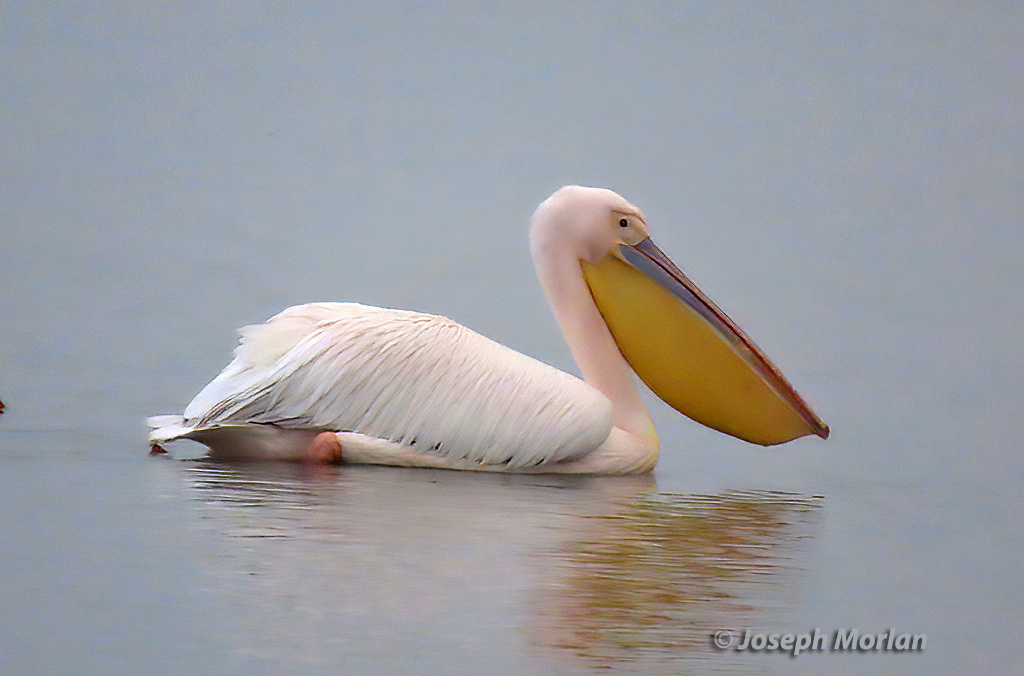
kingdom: Animalia
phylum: Chordata
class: Aves
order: Pelecaniformes
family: Pelecanidae
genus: Pelecanus
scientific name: Pelecanus onocrotalus
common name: Great white pelican
